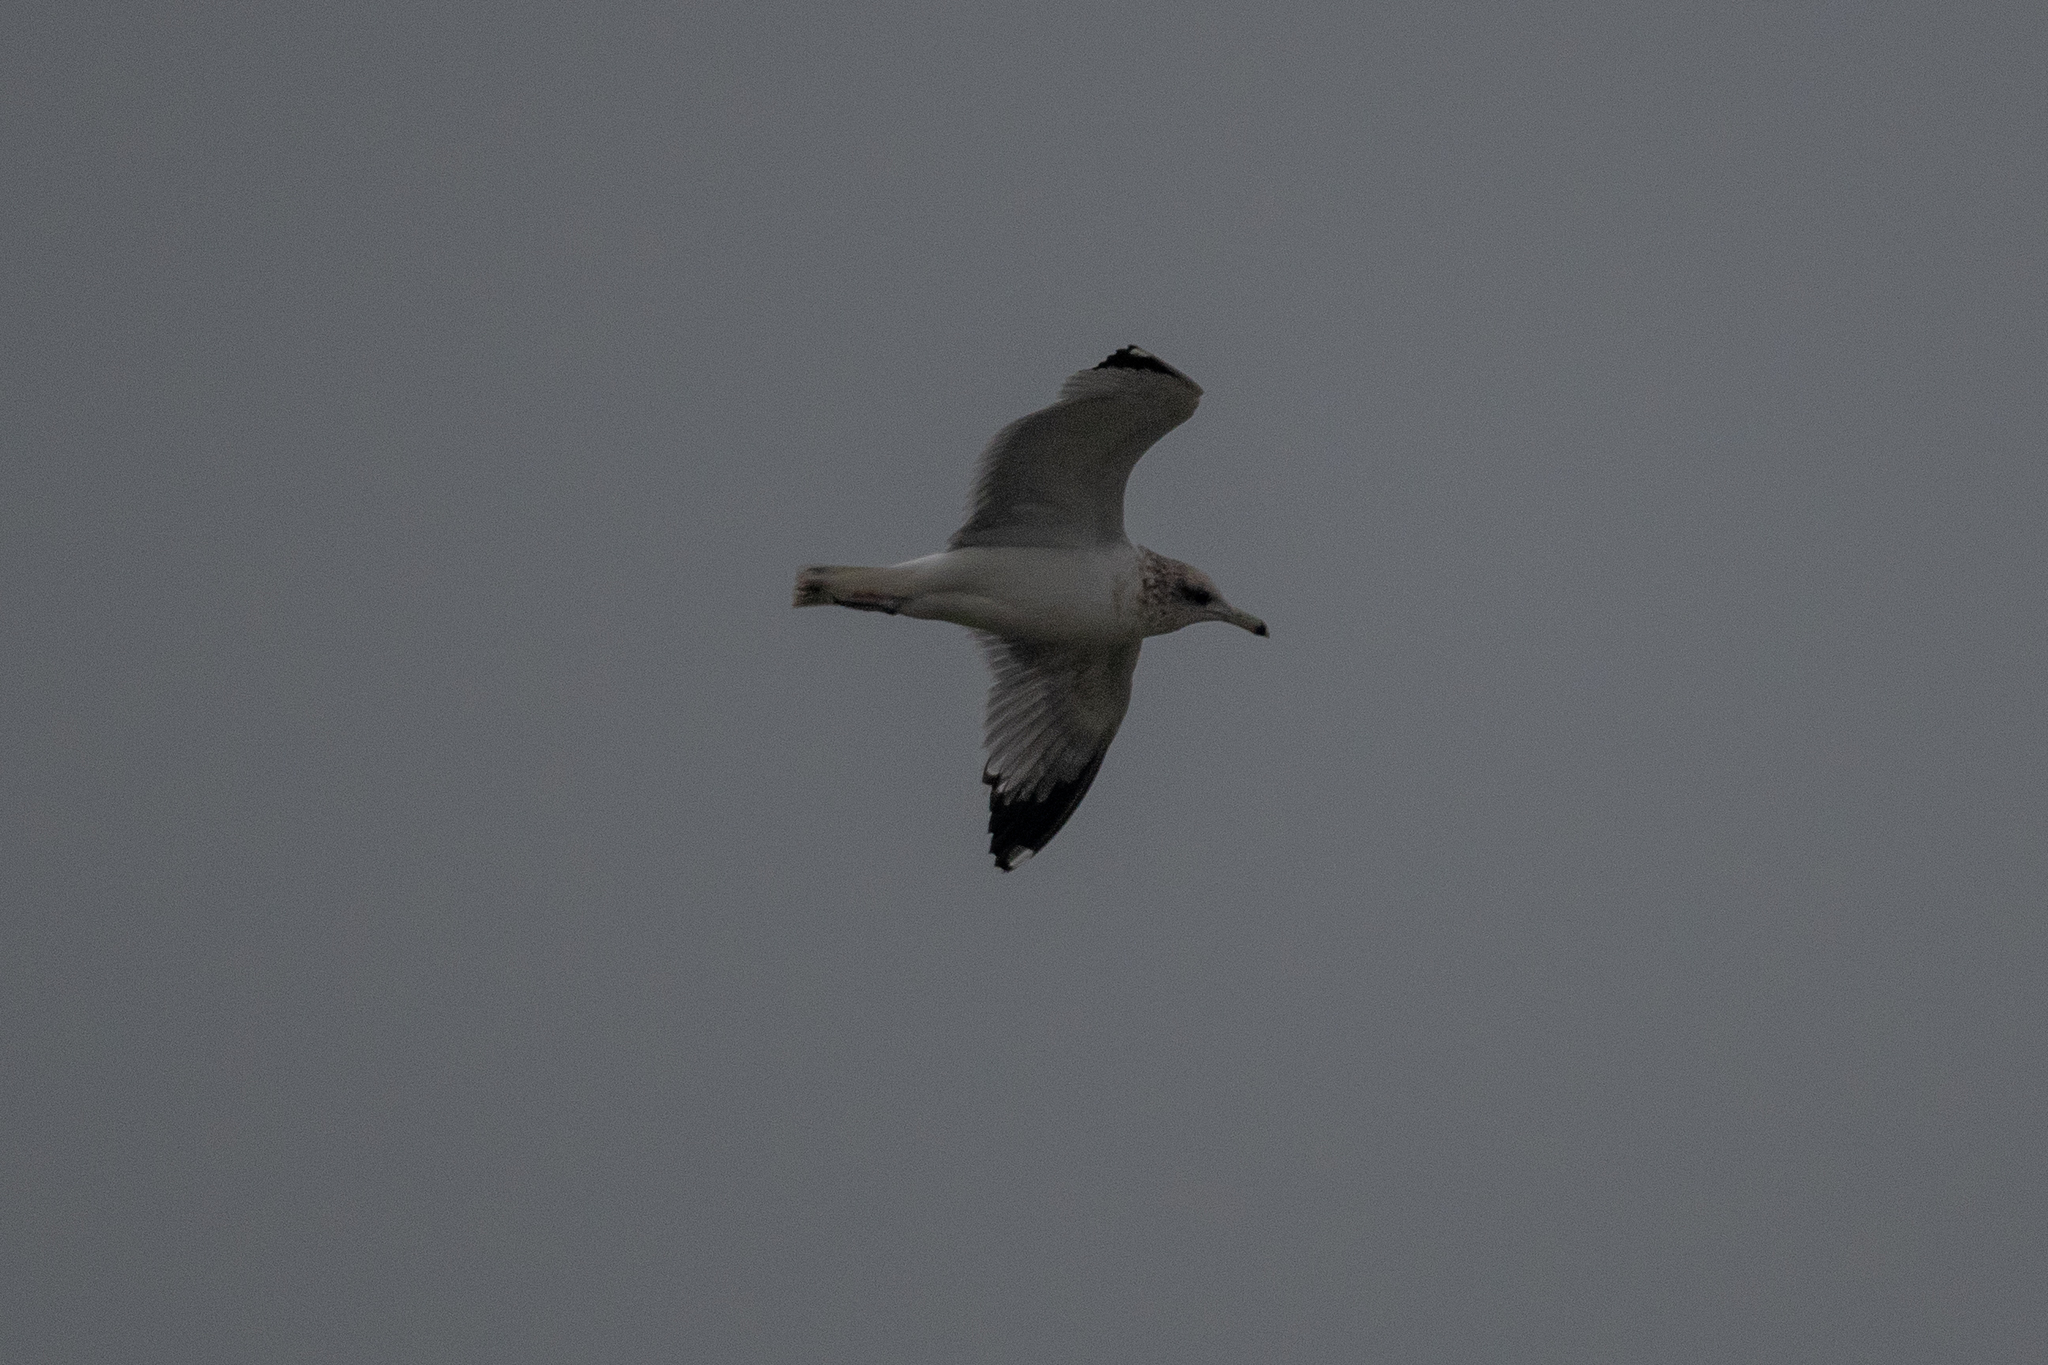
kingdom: Animalia
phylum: Chordata
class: Aves
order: Charadriiformes
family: Laridae
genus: Larus
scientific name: Larus californicus
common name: California gull
